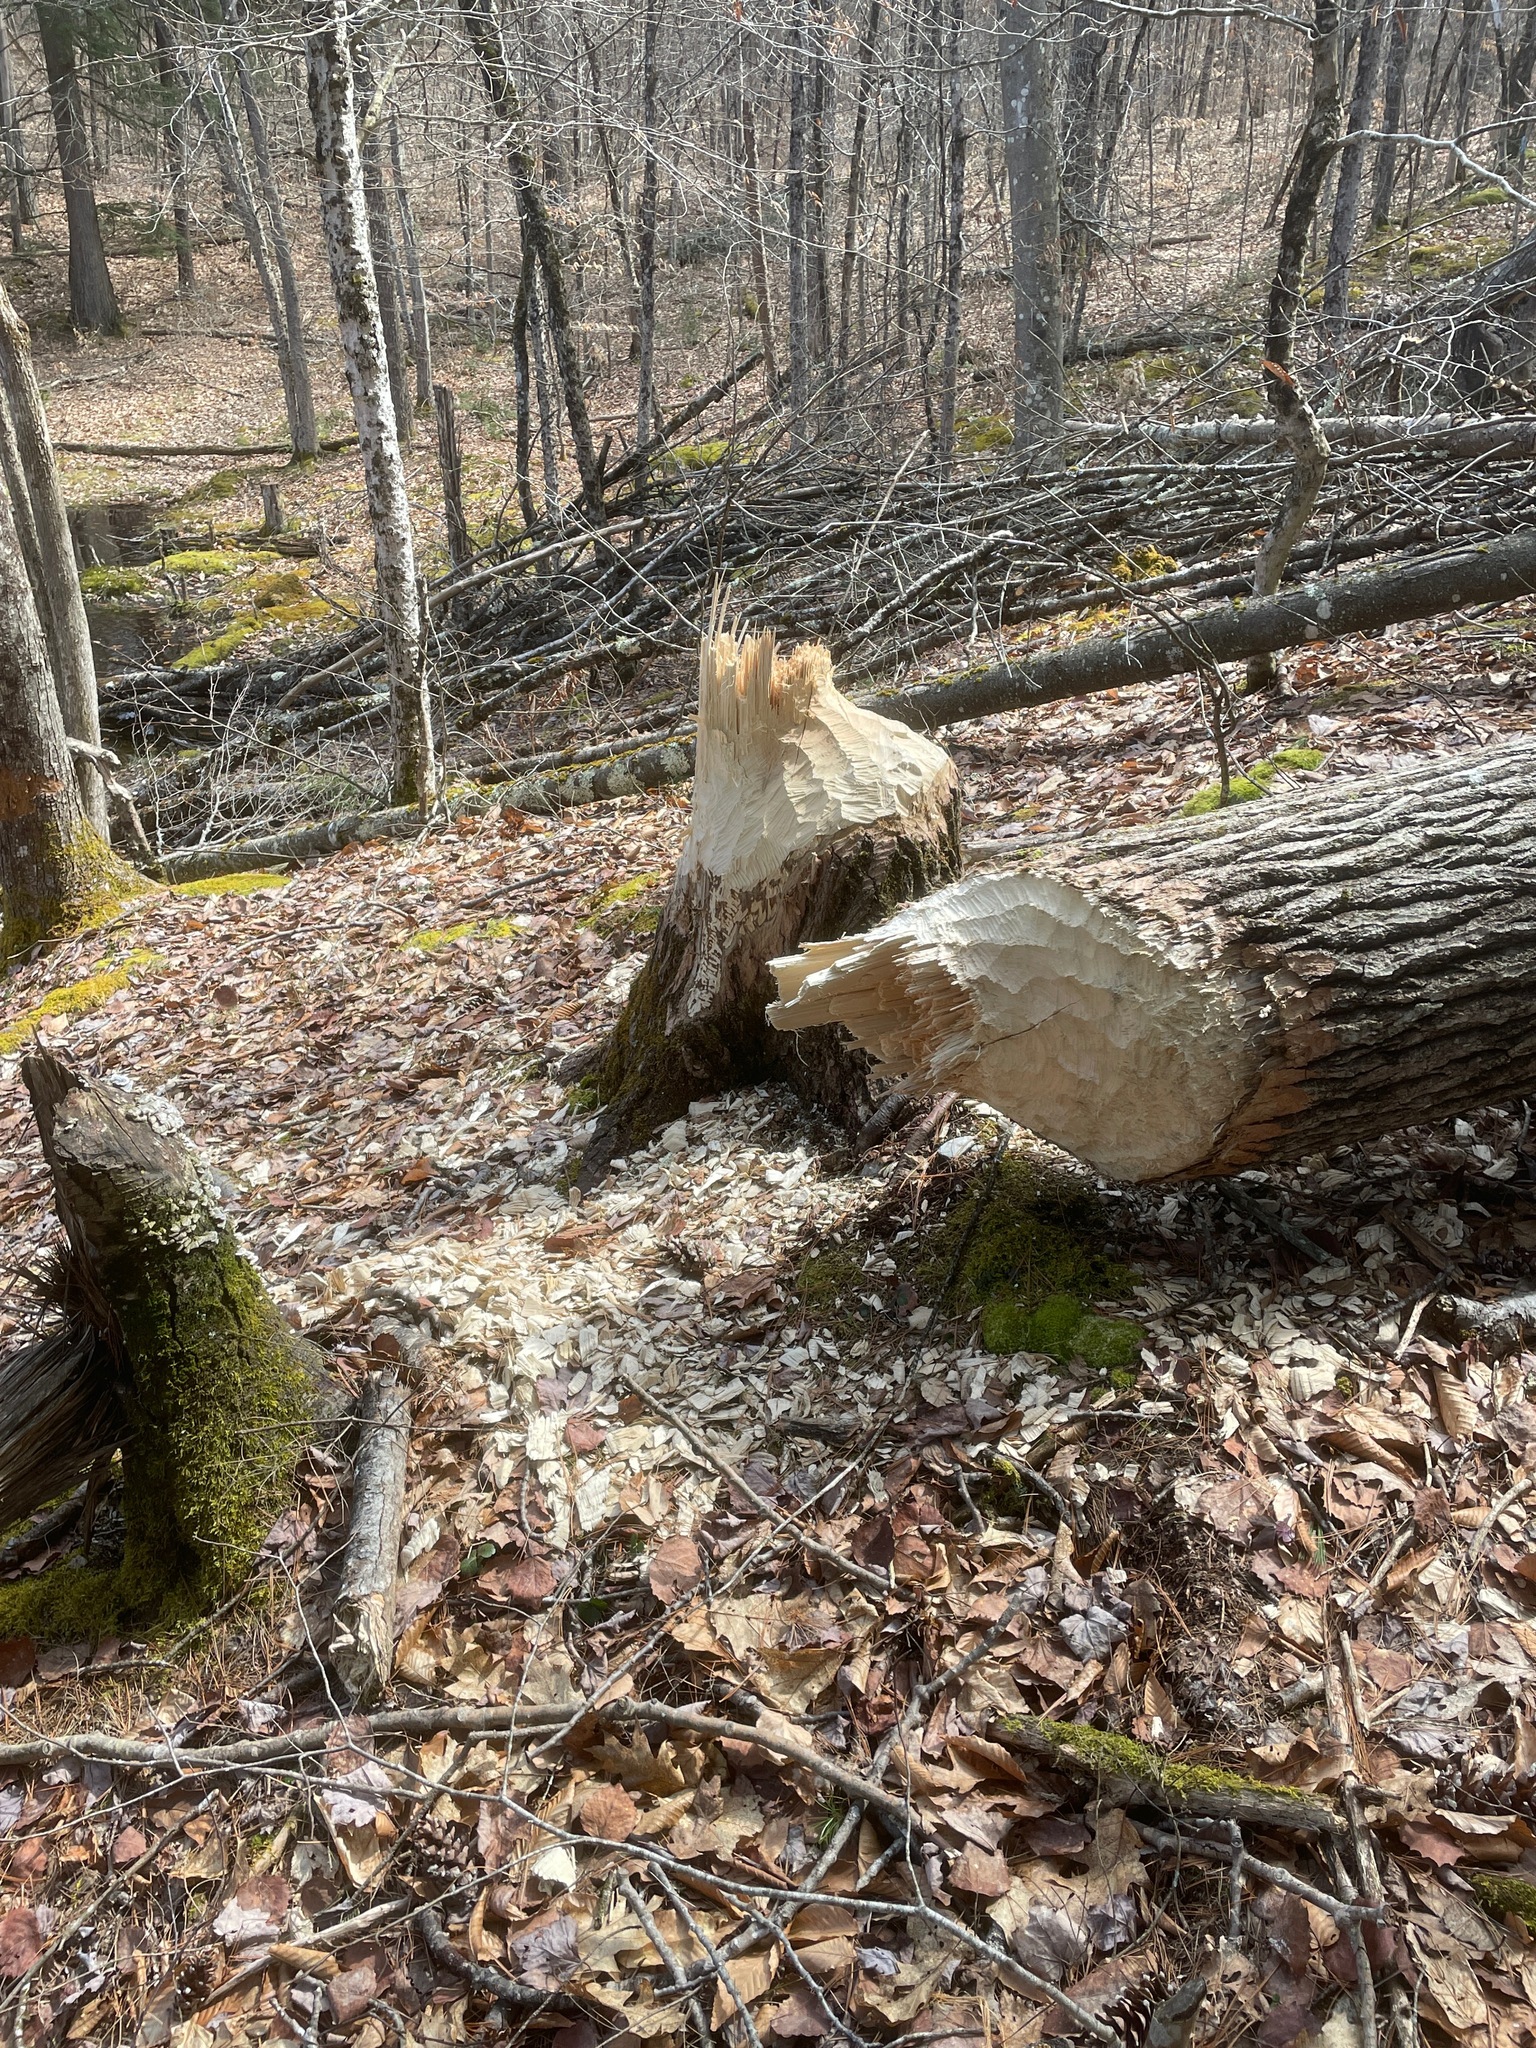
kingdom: Animalia
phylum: Chordata
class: Mammalia
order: Rodentia
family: Castoridae
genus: Castor
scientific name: Castor canadensis
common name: American beaver
